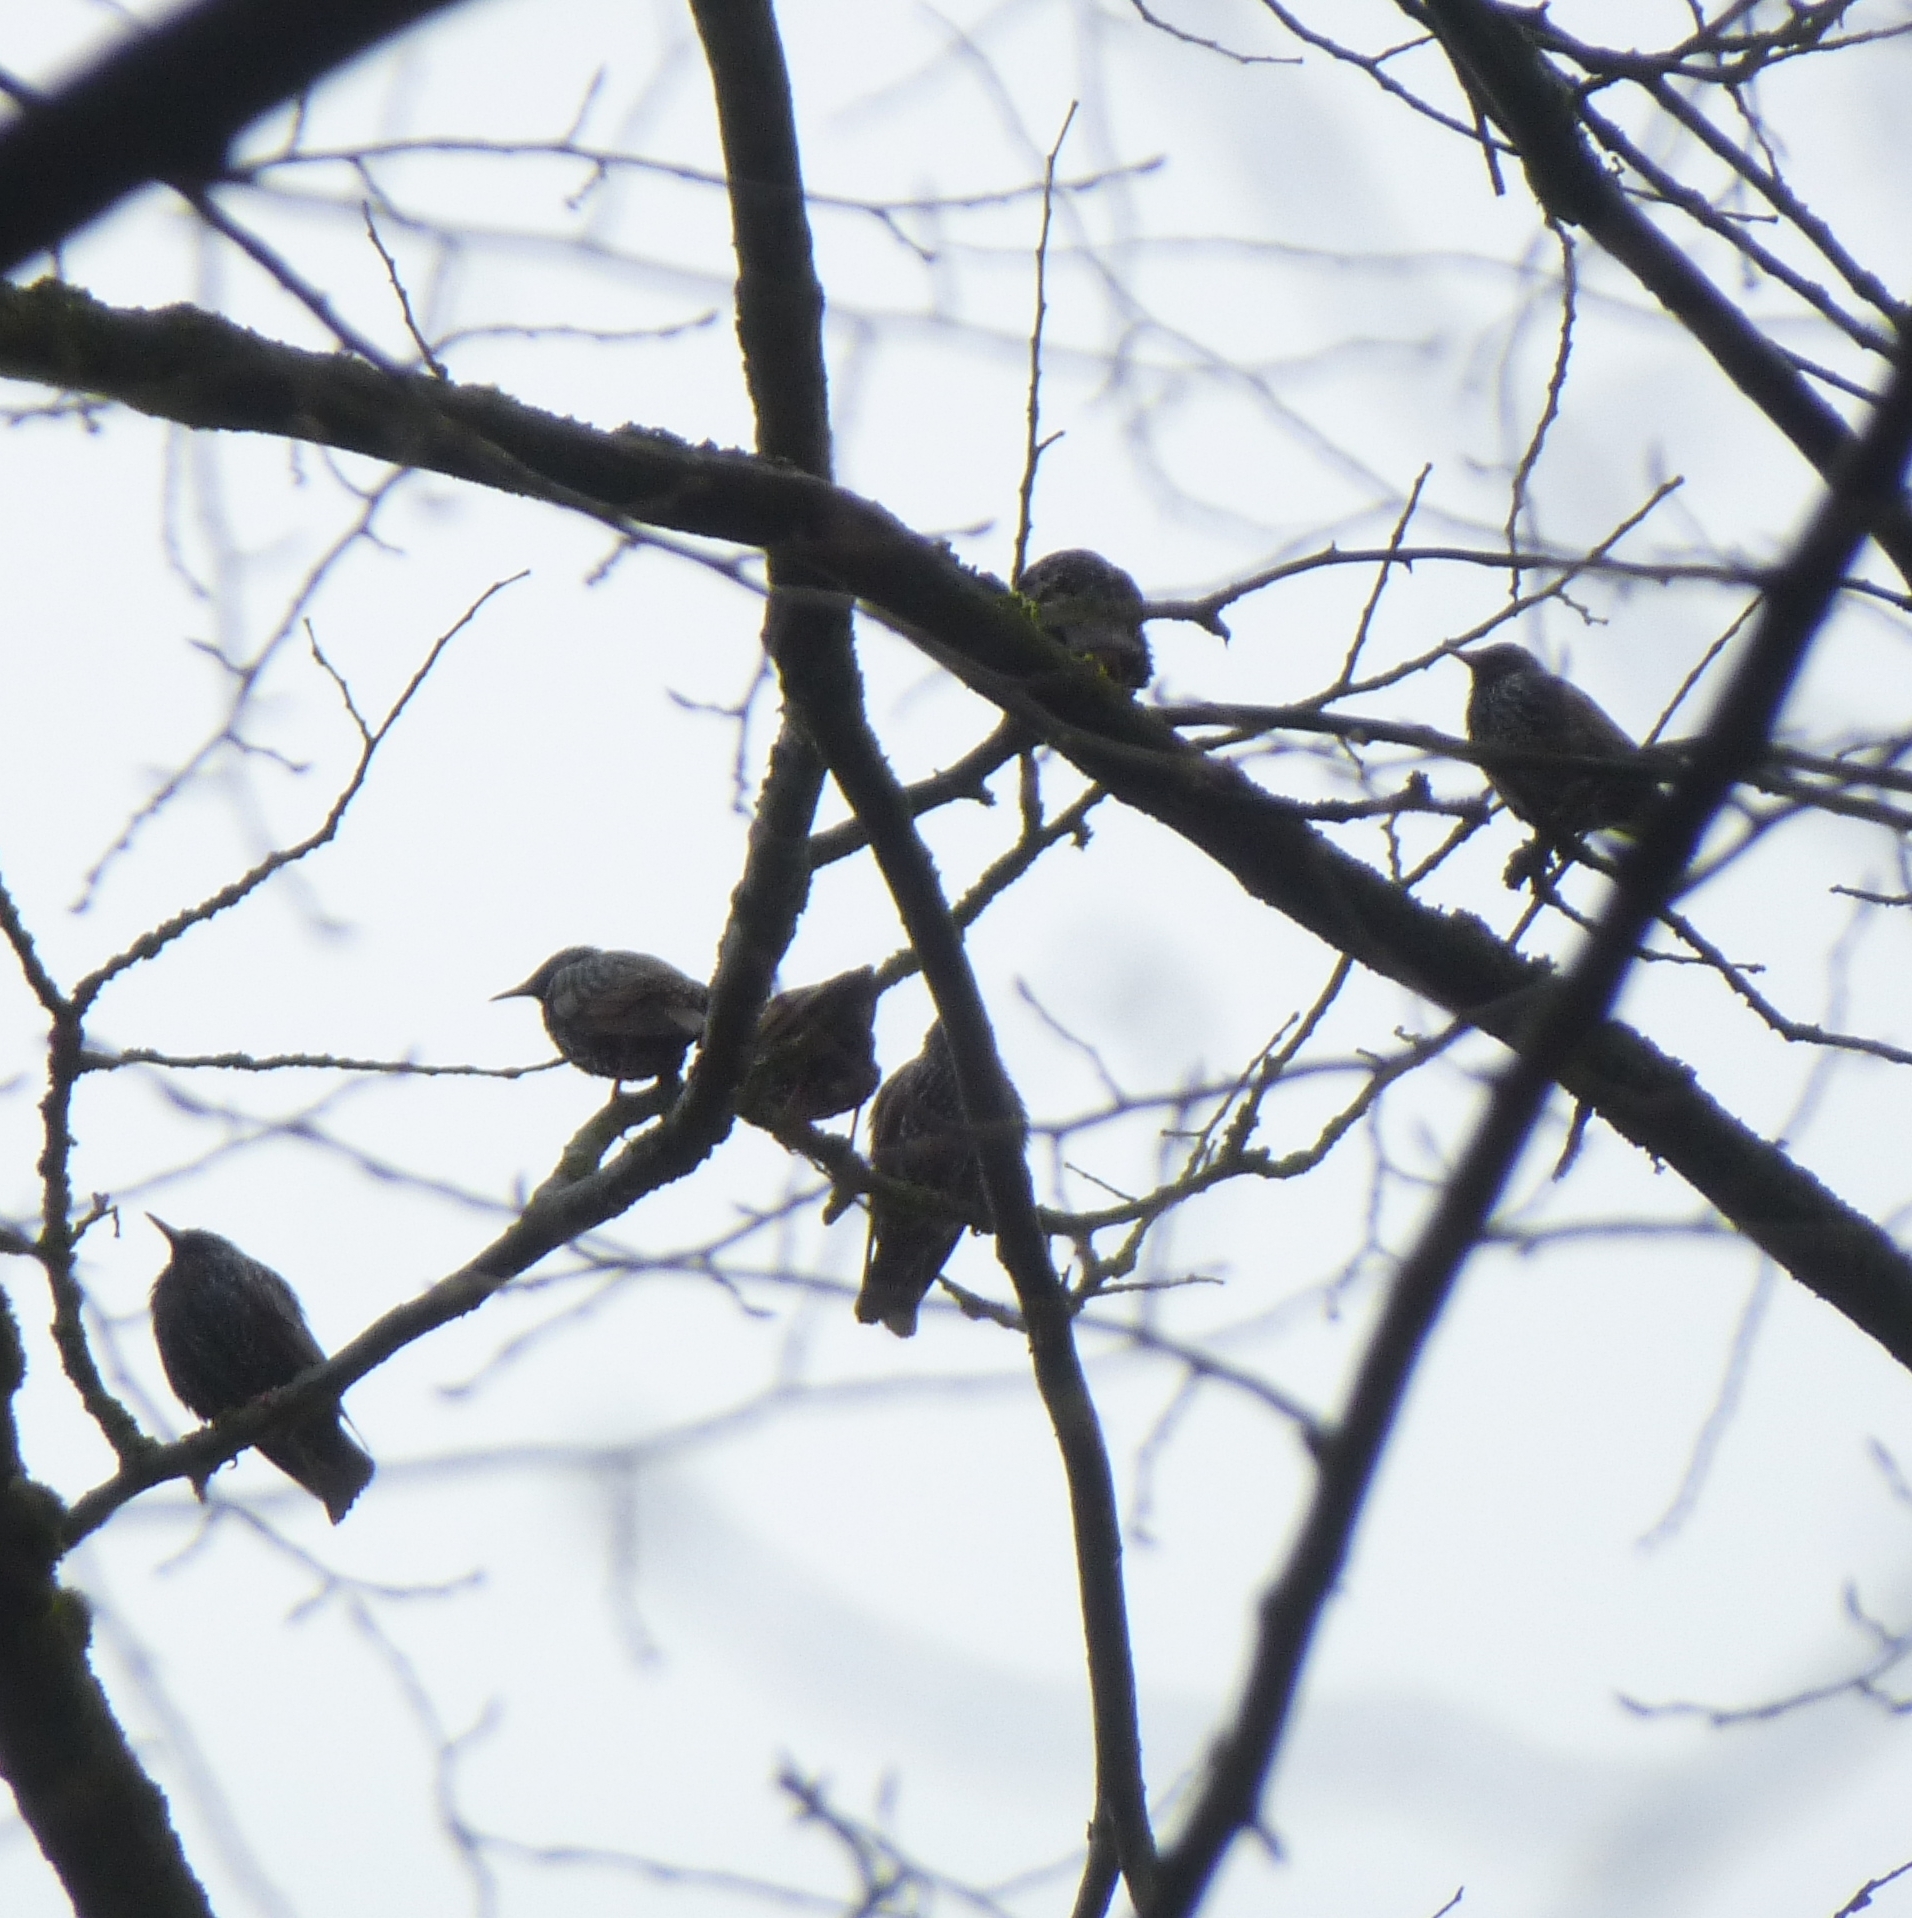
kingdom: Animalia
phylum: Chordata
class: Aves
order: Passeriformes
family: Sturnidae
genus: Sturnus
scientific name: Sturnus vulgaris
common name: Common starling
